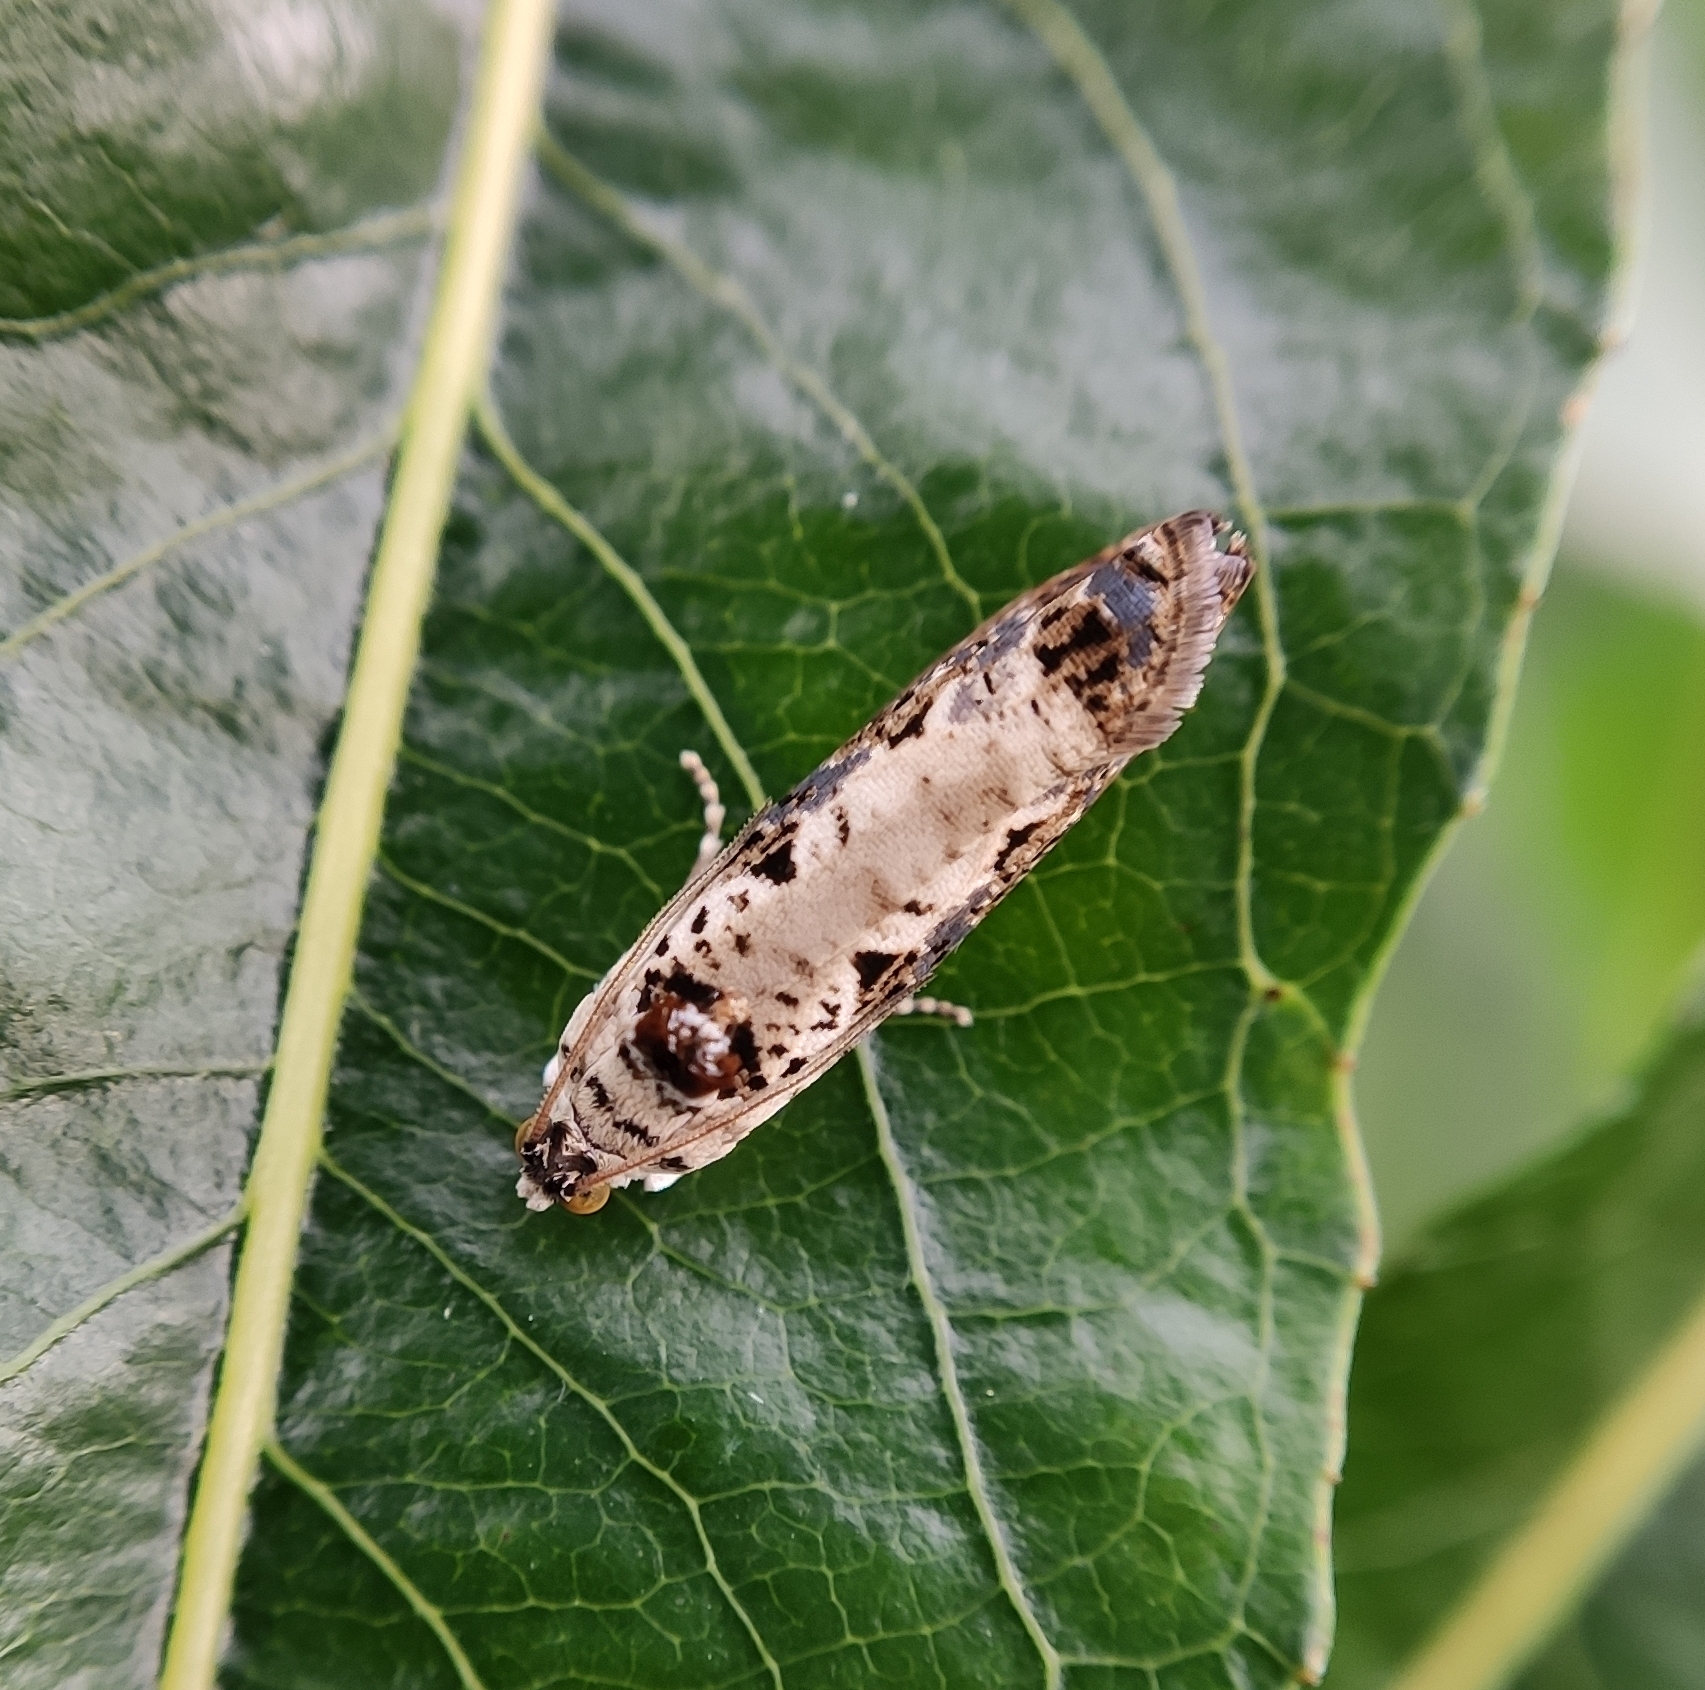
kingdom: Animalia
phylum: Arthropoda
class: Insecta
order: Lepidoptera
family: Tortricidae
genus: Hedya
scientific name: Hedya salicella
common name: Large tortricid moth
